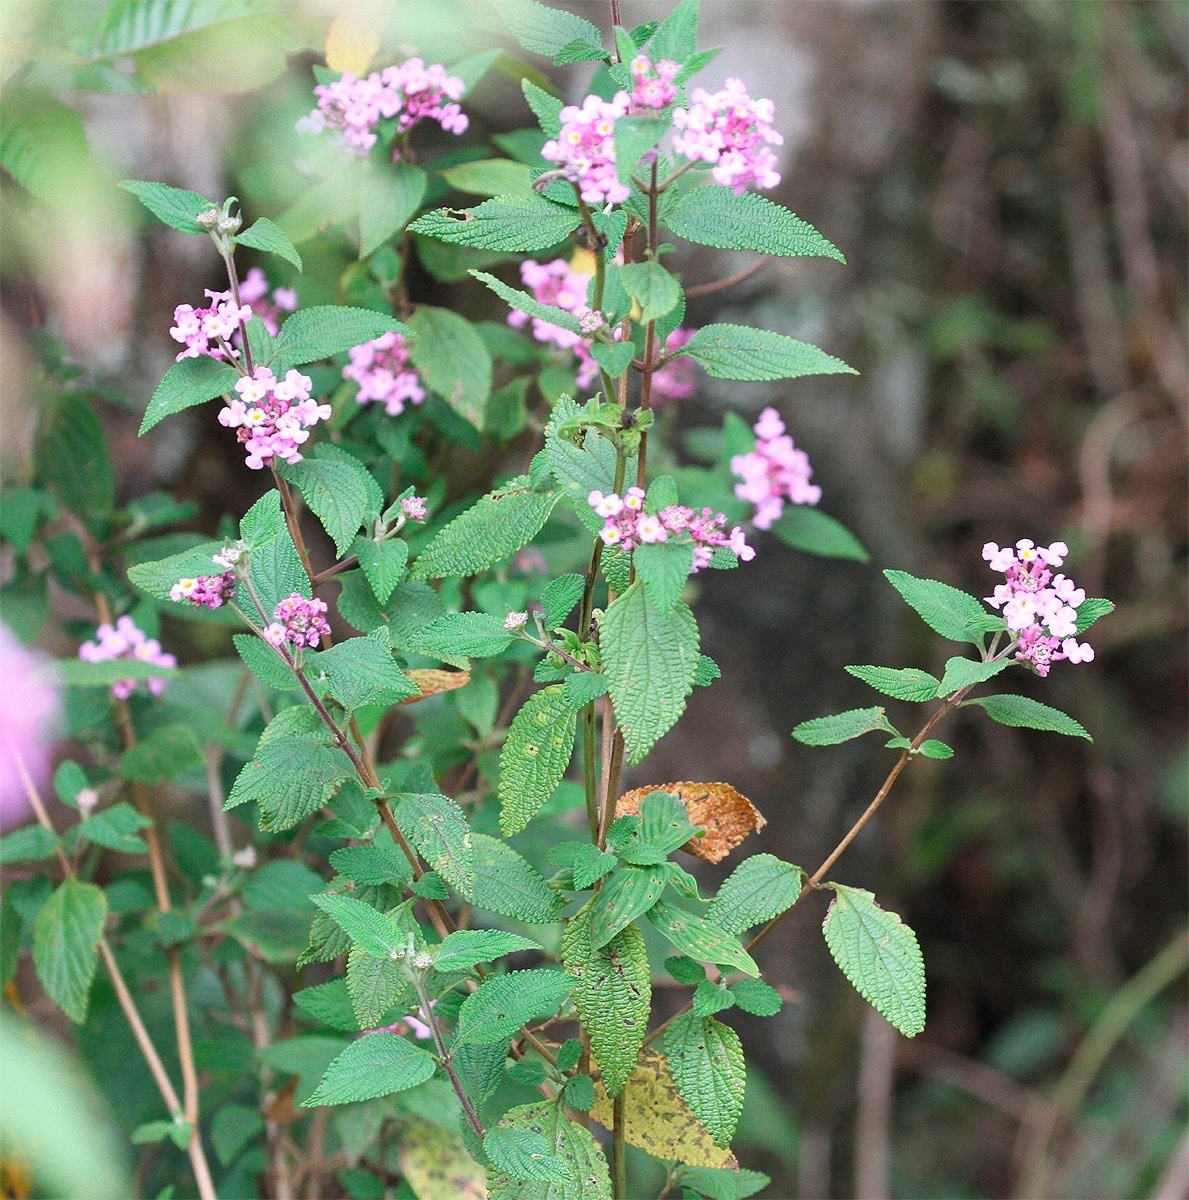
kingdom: Plantae
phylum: Tracheophyta
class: Magnoliopsida
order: Lamiales
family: Verbenaceae
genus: Lantana
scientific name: Lantana montevidensis
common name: Trailing shrubverbena
